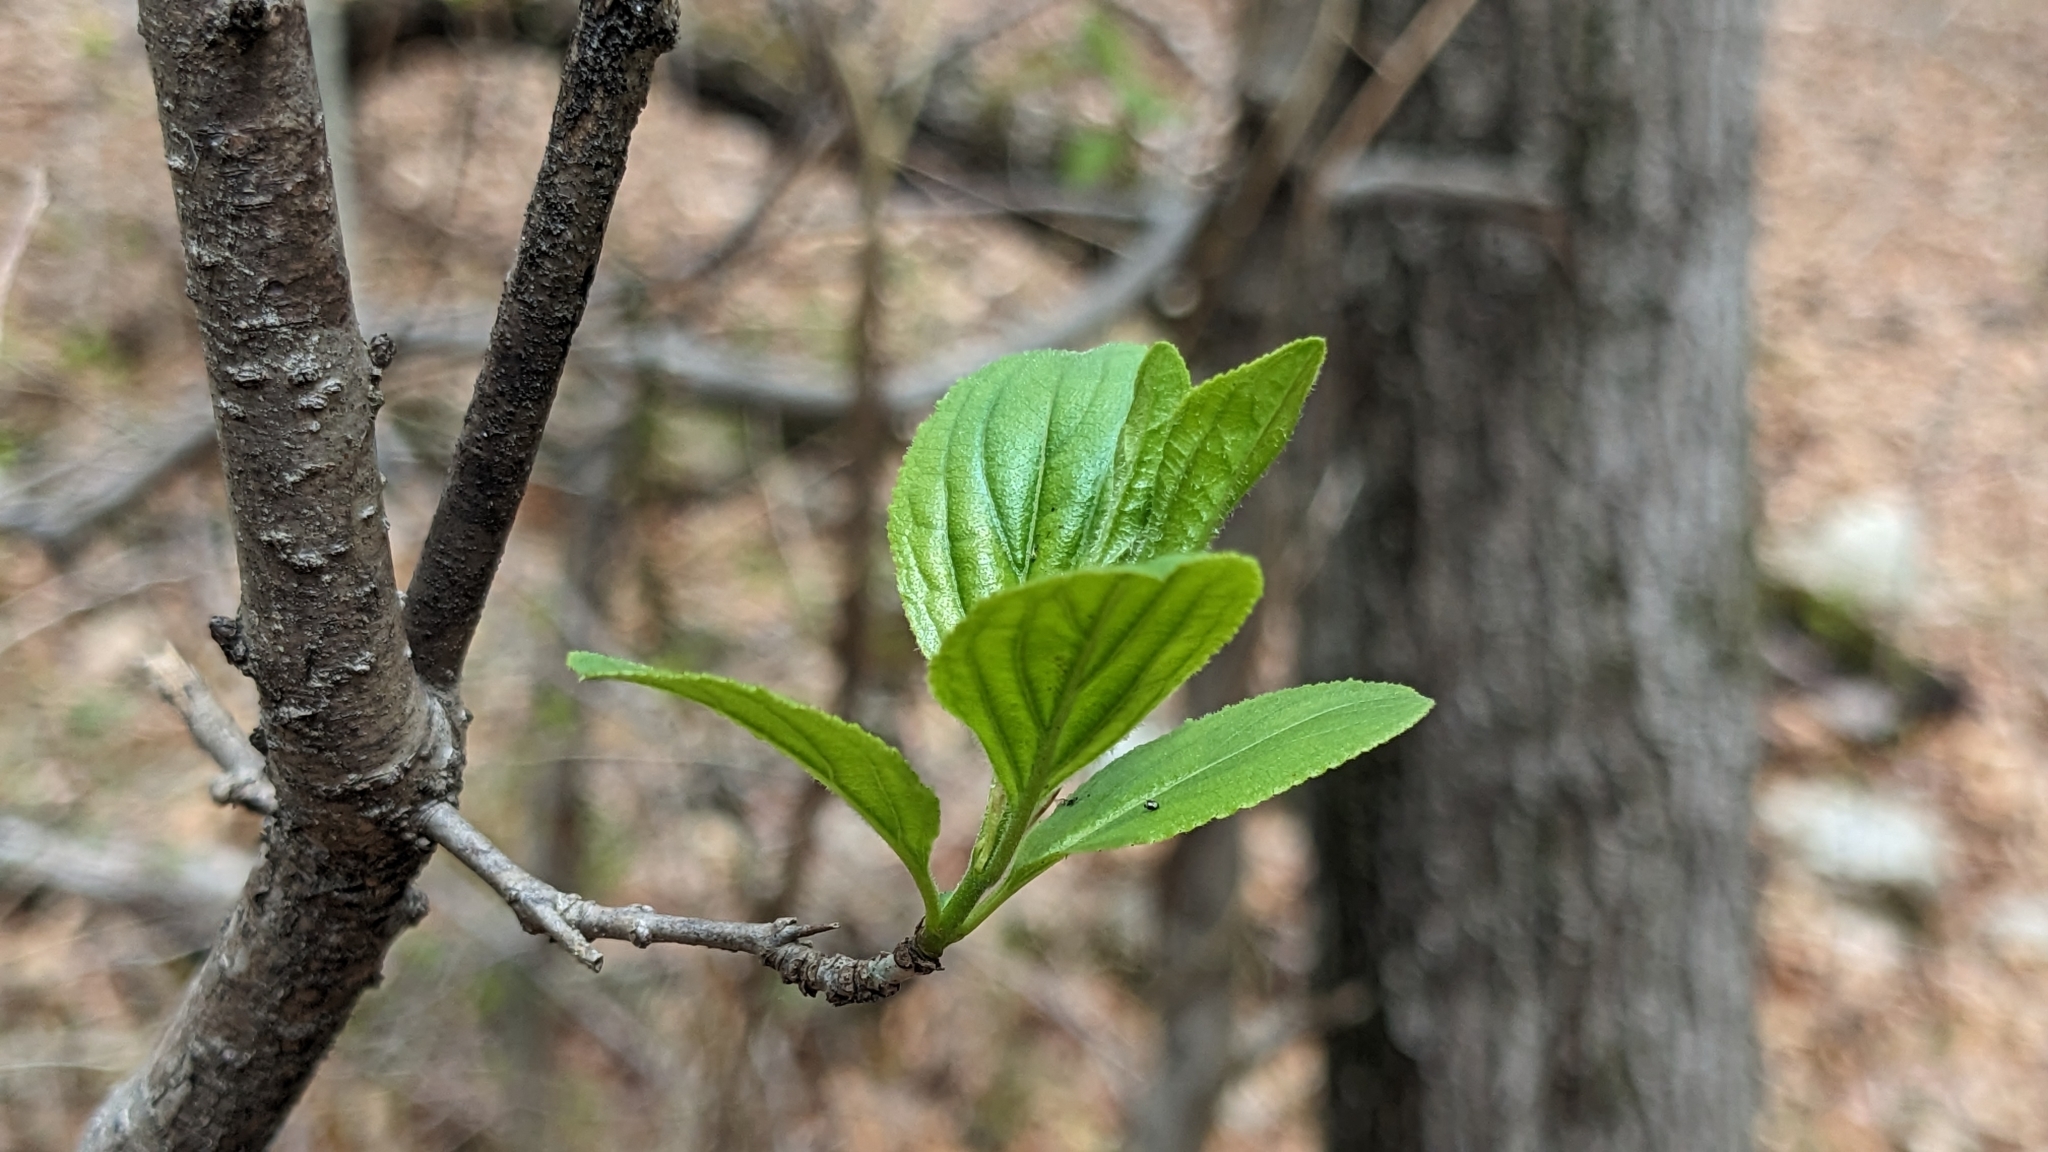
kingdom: Plantae
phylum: Tracheophyta
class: Magnoliopsida
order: Rosales
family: Rhamnaceae
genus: Rhamnus
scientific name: Rhamnus cathartica
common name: Common buckthorn
